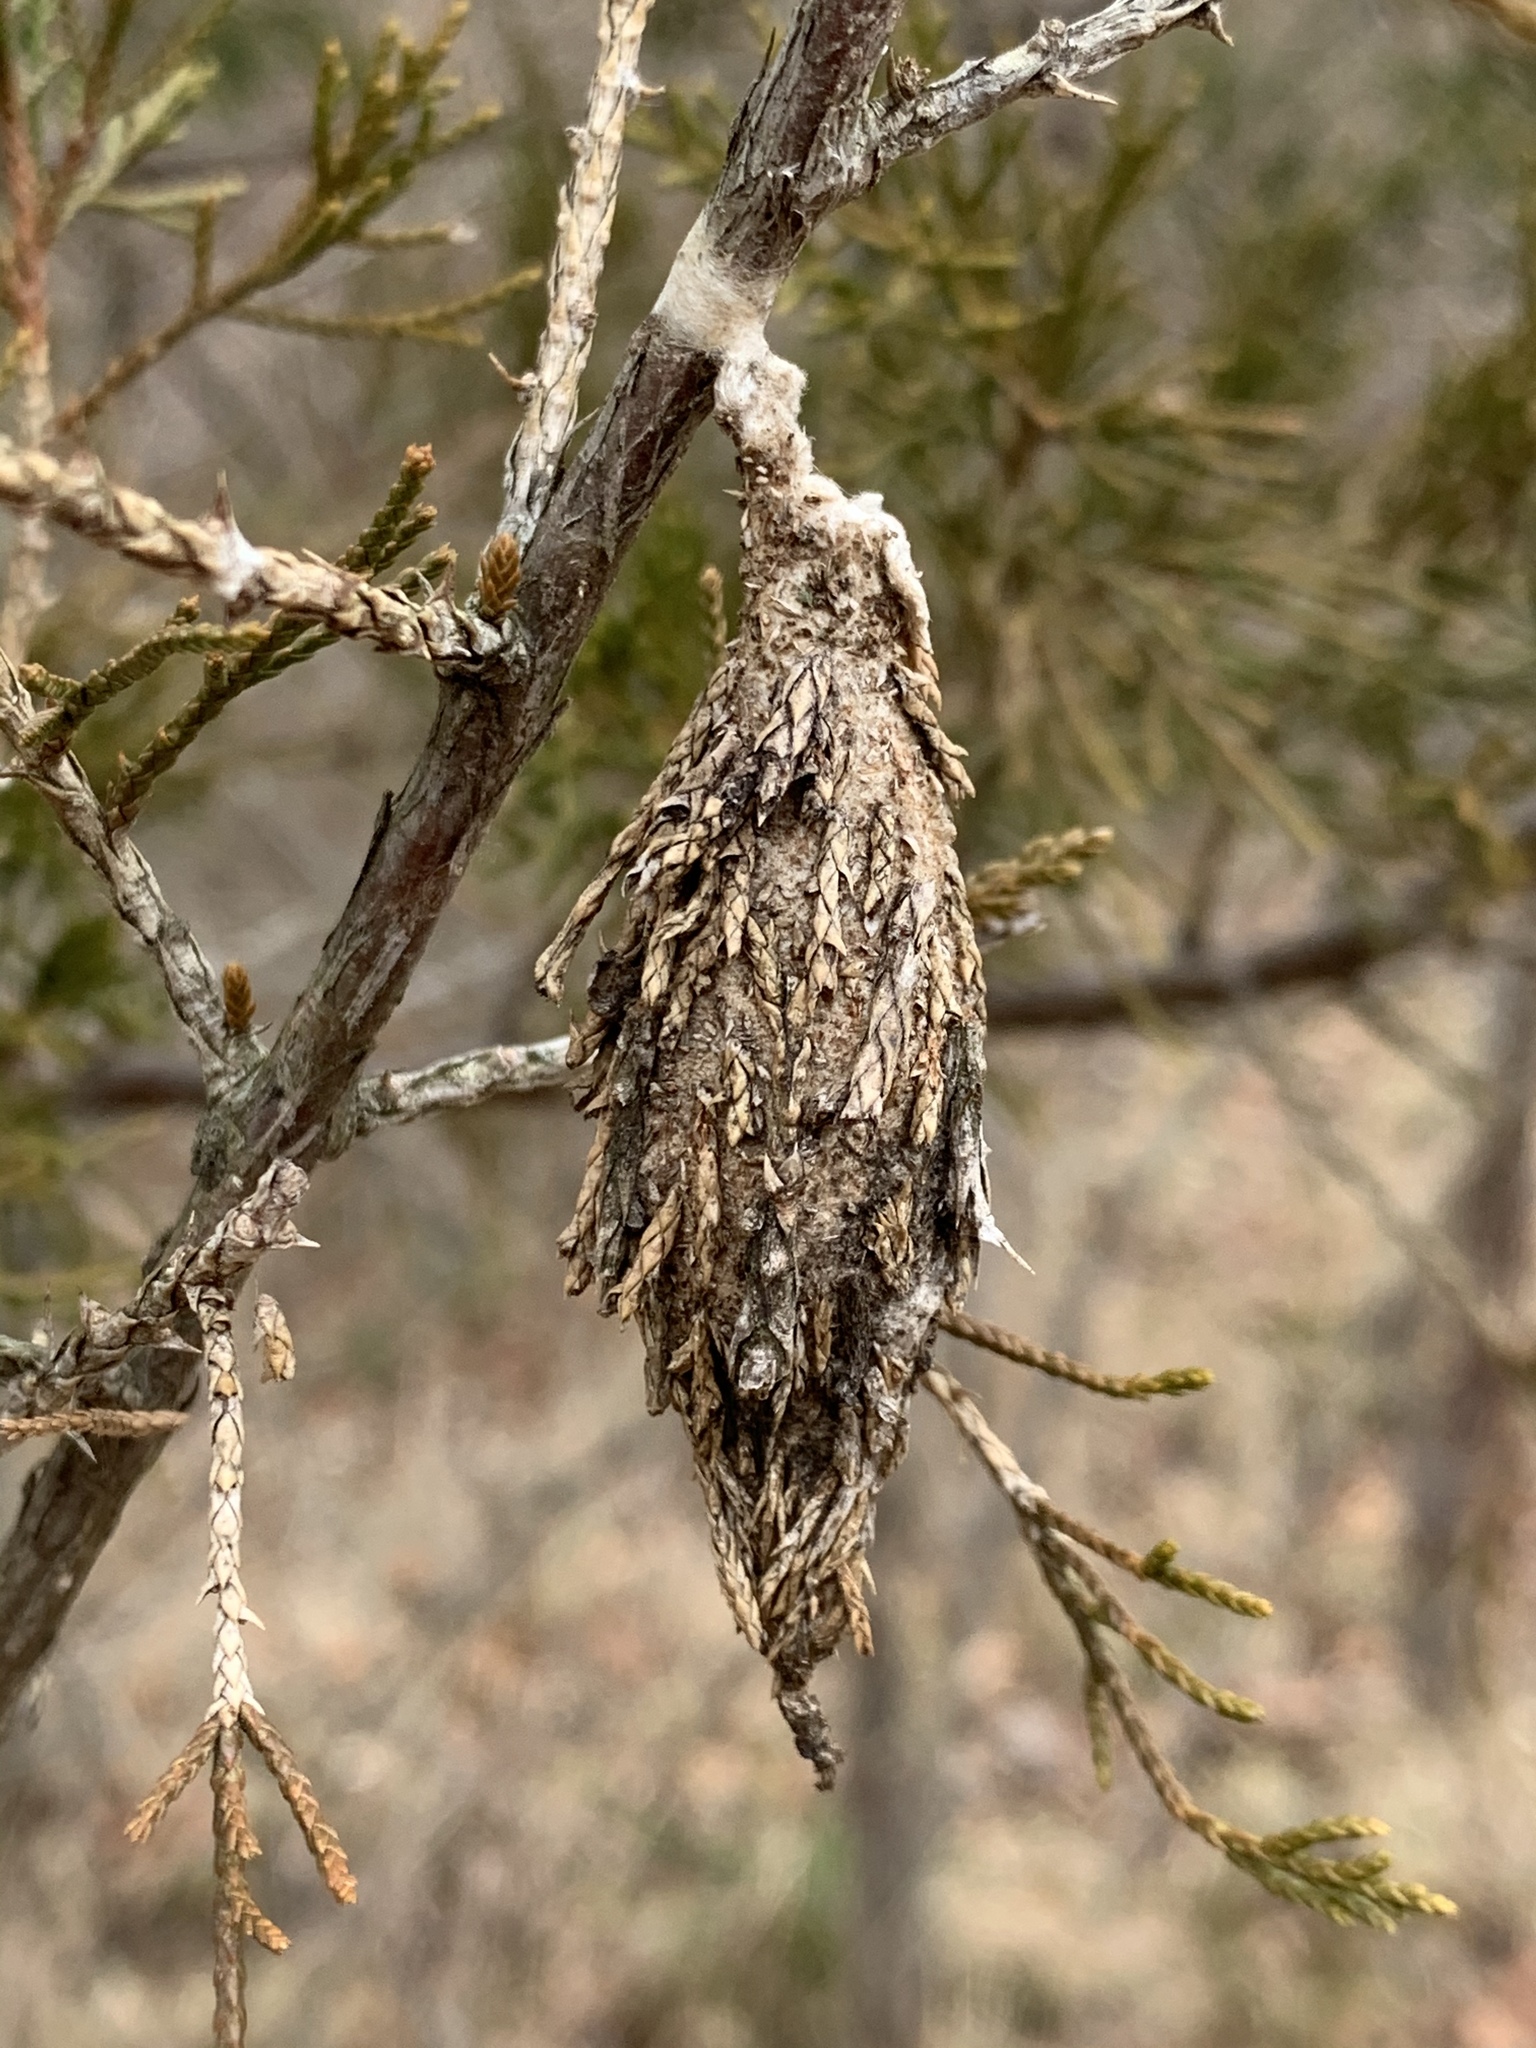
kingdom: Animalia
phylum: Arthropoda
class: Insecta
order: Lepidoptera
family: Psychidae
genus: Thyridopteryx
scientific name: Thyridopteryx ephemeraeformis
